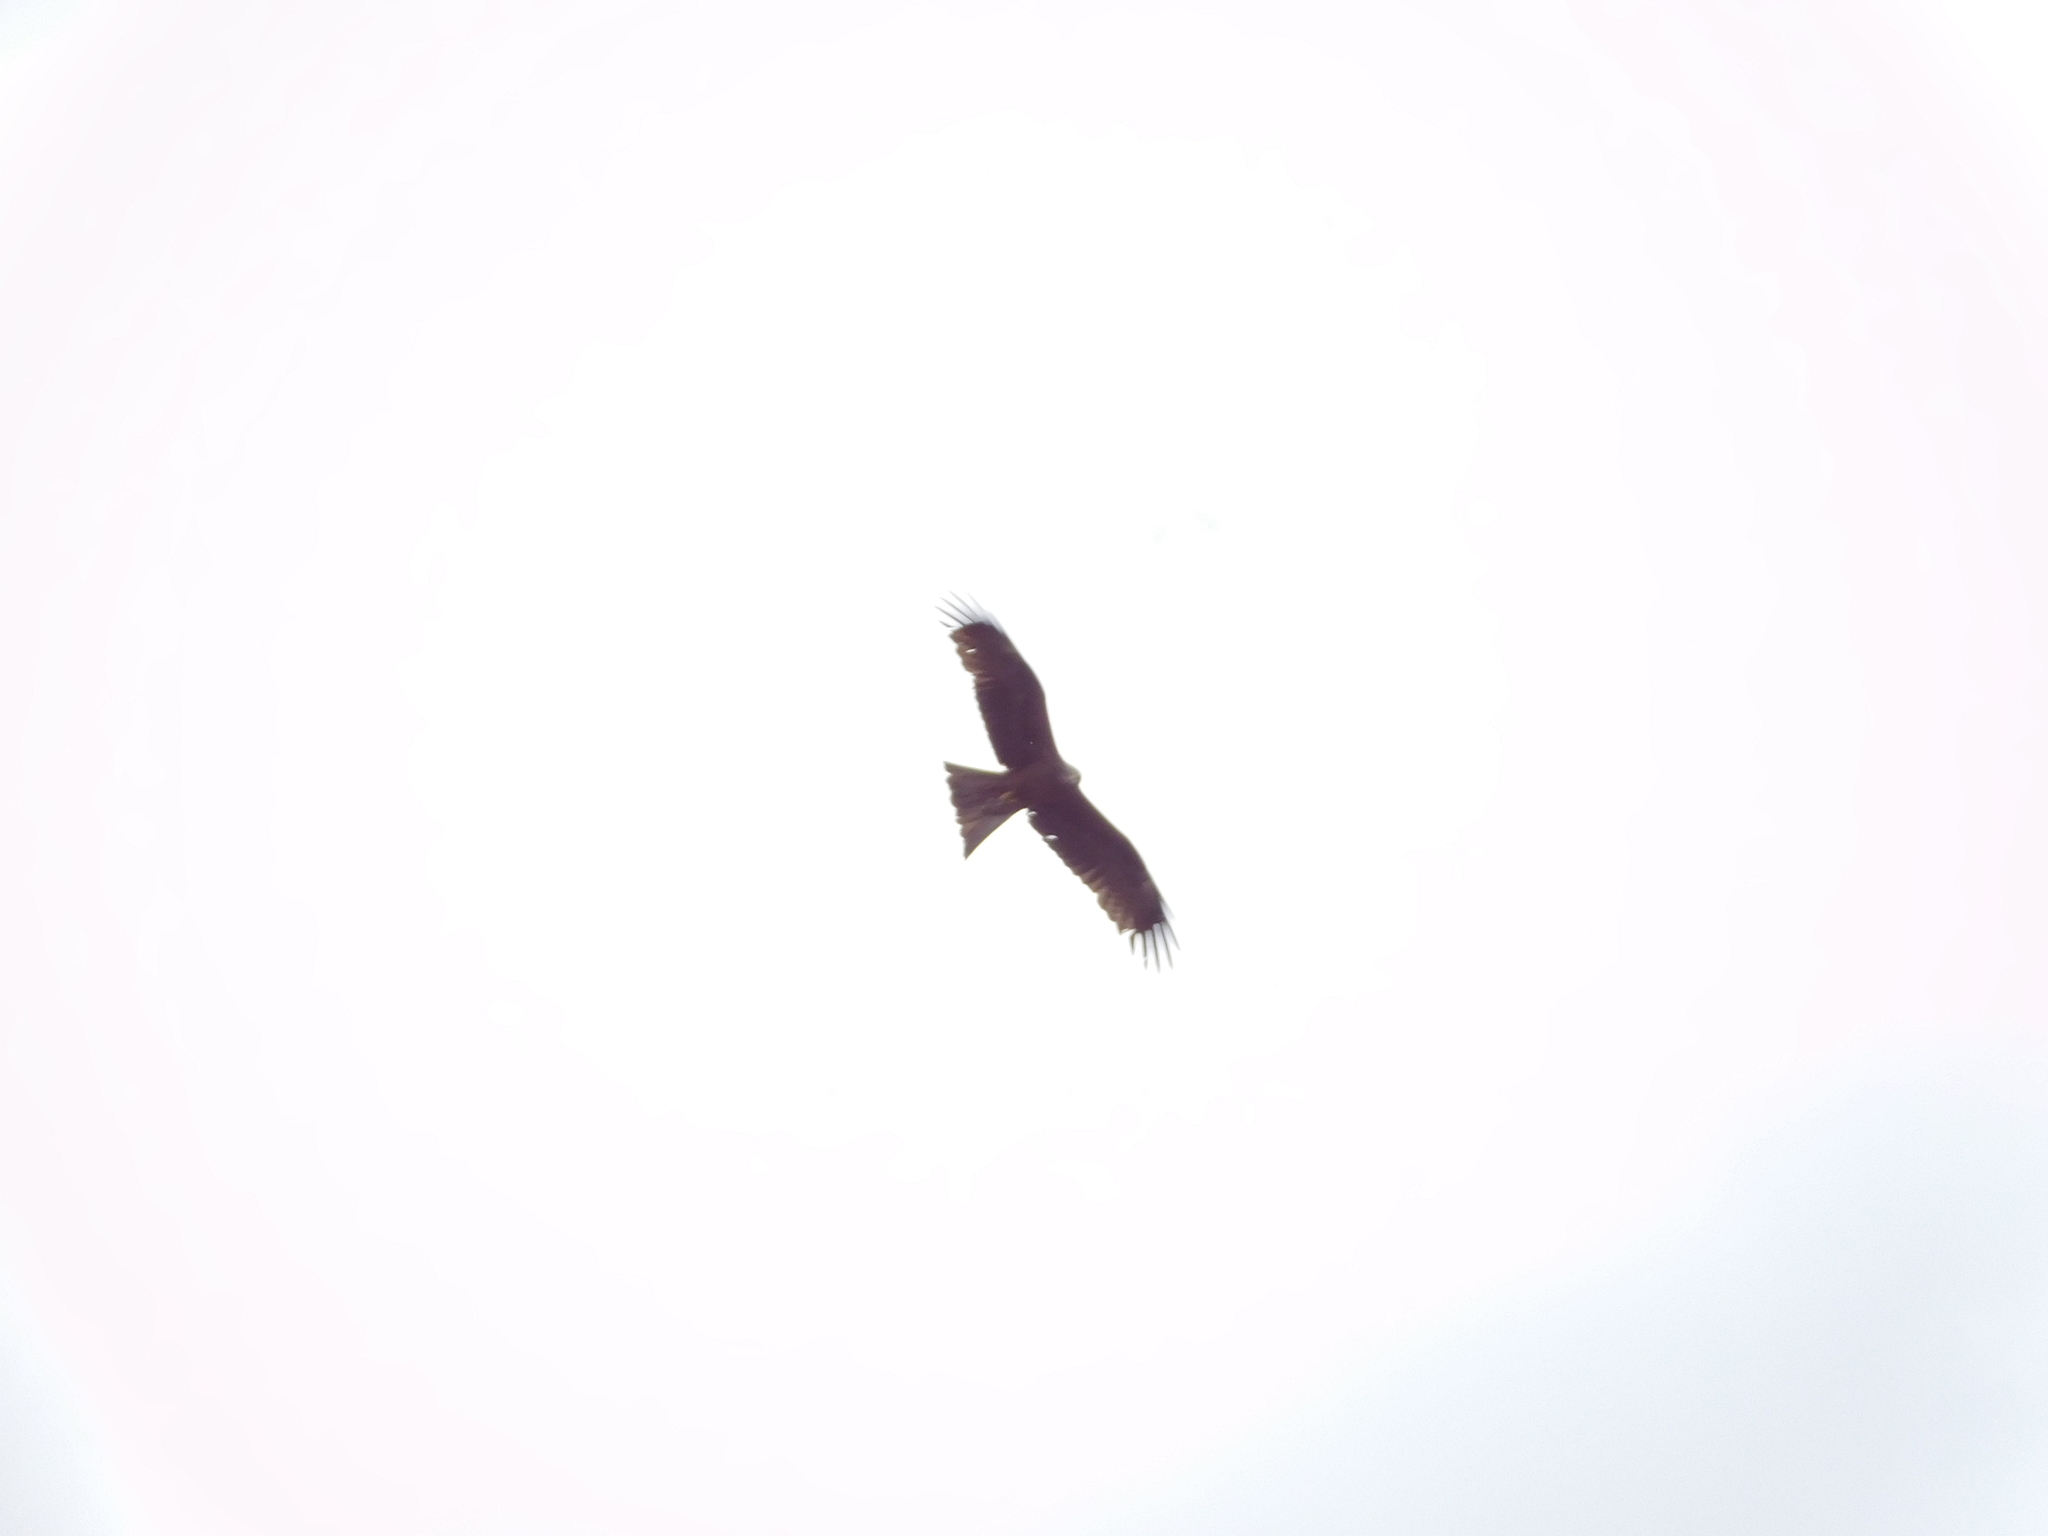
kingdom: Animalia
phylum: Chordata
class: Aves
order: Accipitriformes
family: Accipitridae
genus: Milvus
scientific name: Milvus migrans
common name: Black kite
